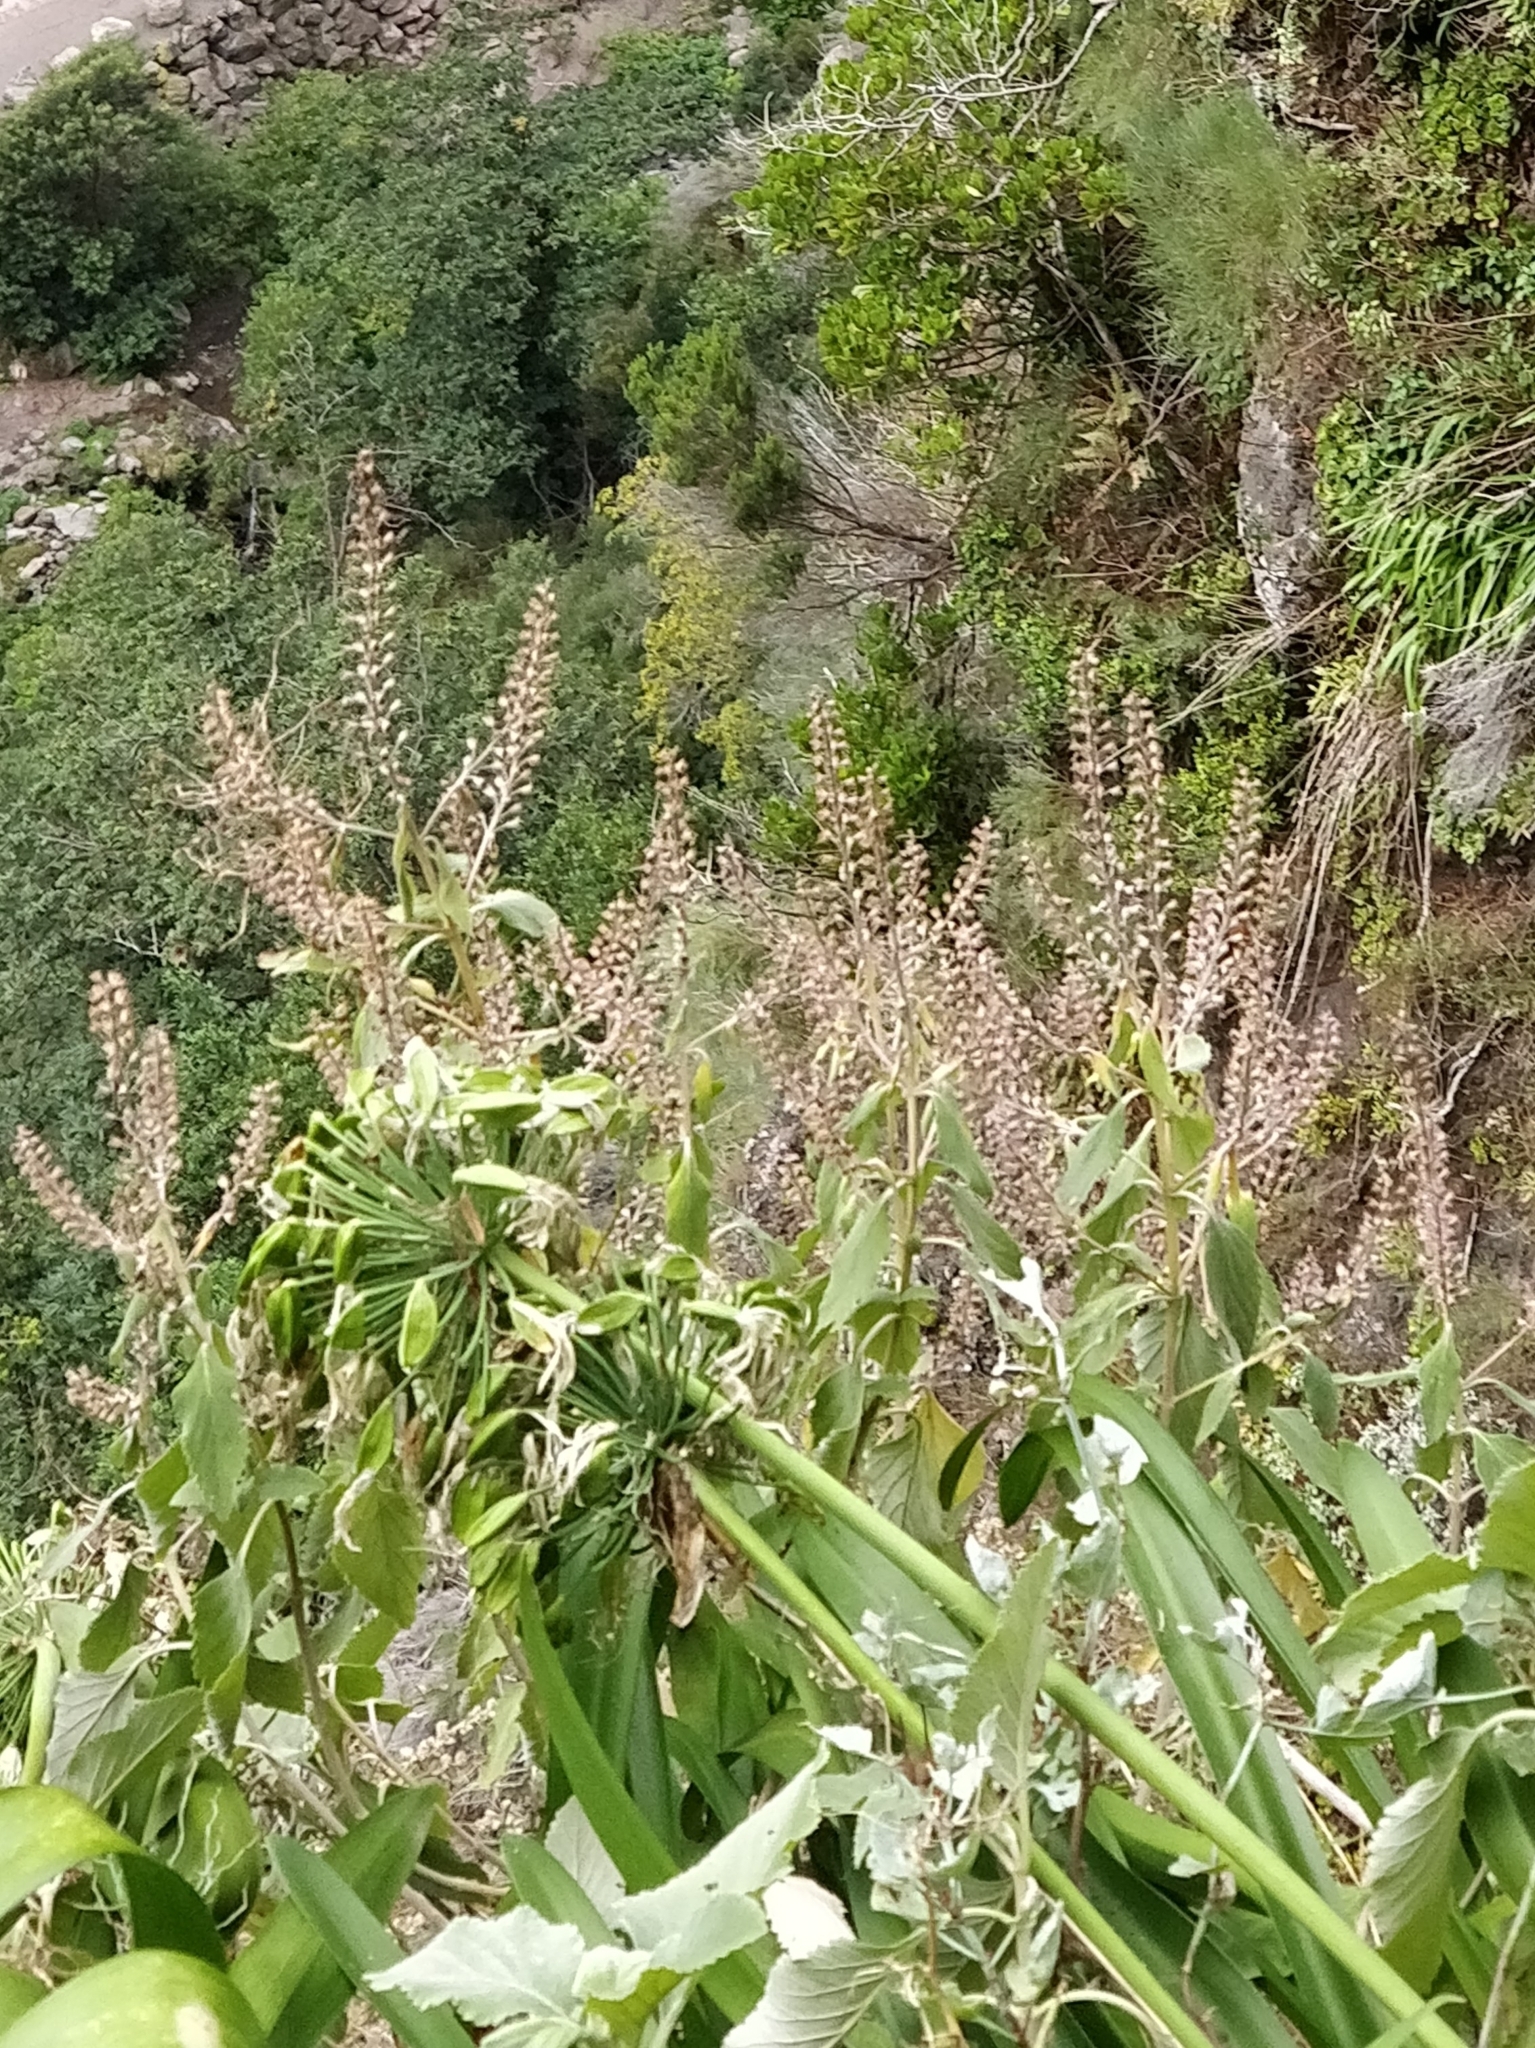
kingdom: Plantae
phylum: Tracheophyta
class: Magnoliopsida
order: Lamiales
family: Lamiaceae
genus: Teucrium
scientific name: Teucrium betonicum
